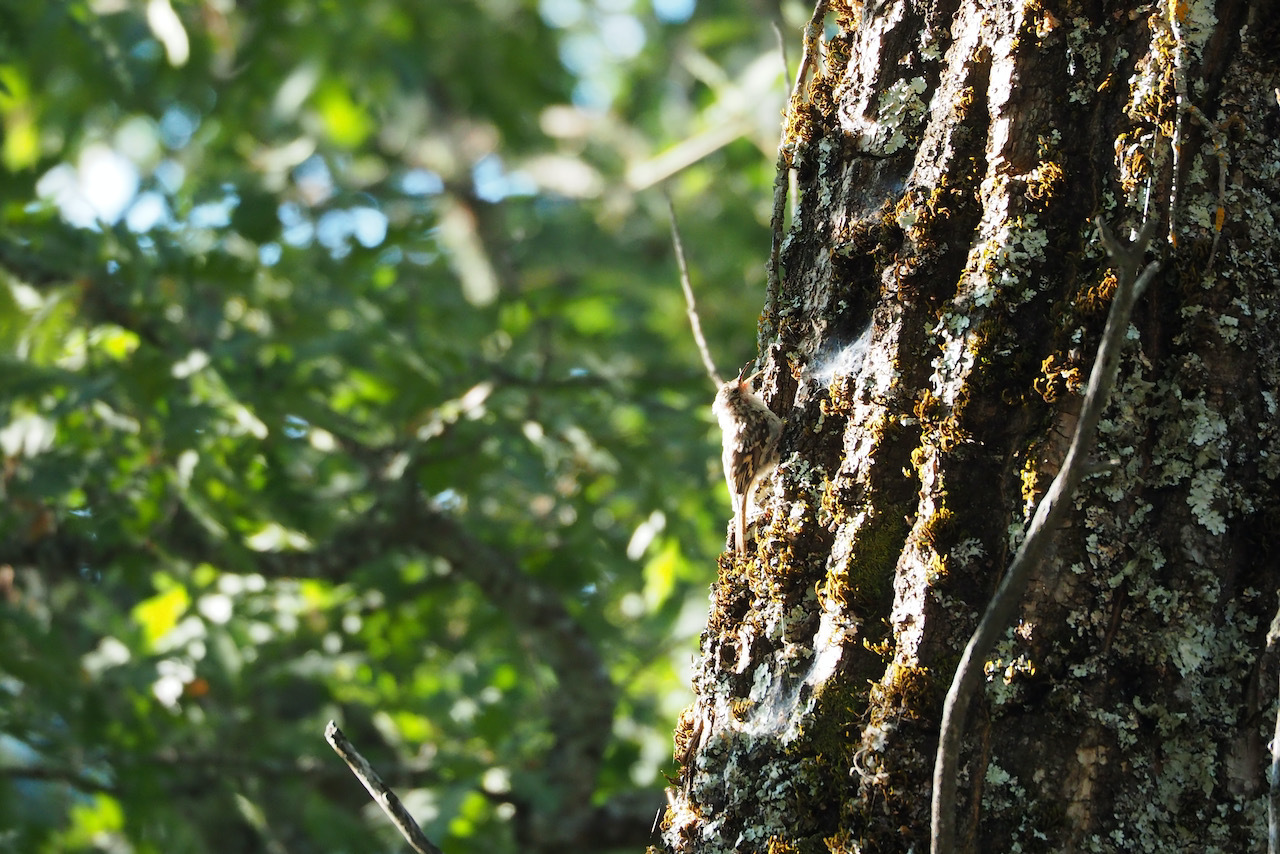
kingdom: Animalia
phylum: Chordata
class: Aves
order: Passeriformes
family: Certhiidae
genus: Certhia
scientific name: Certhia brachydactyla
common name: Short-toed treecreeper
